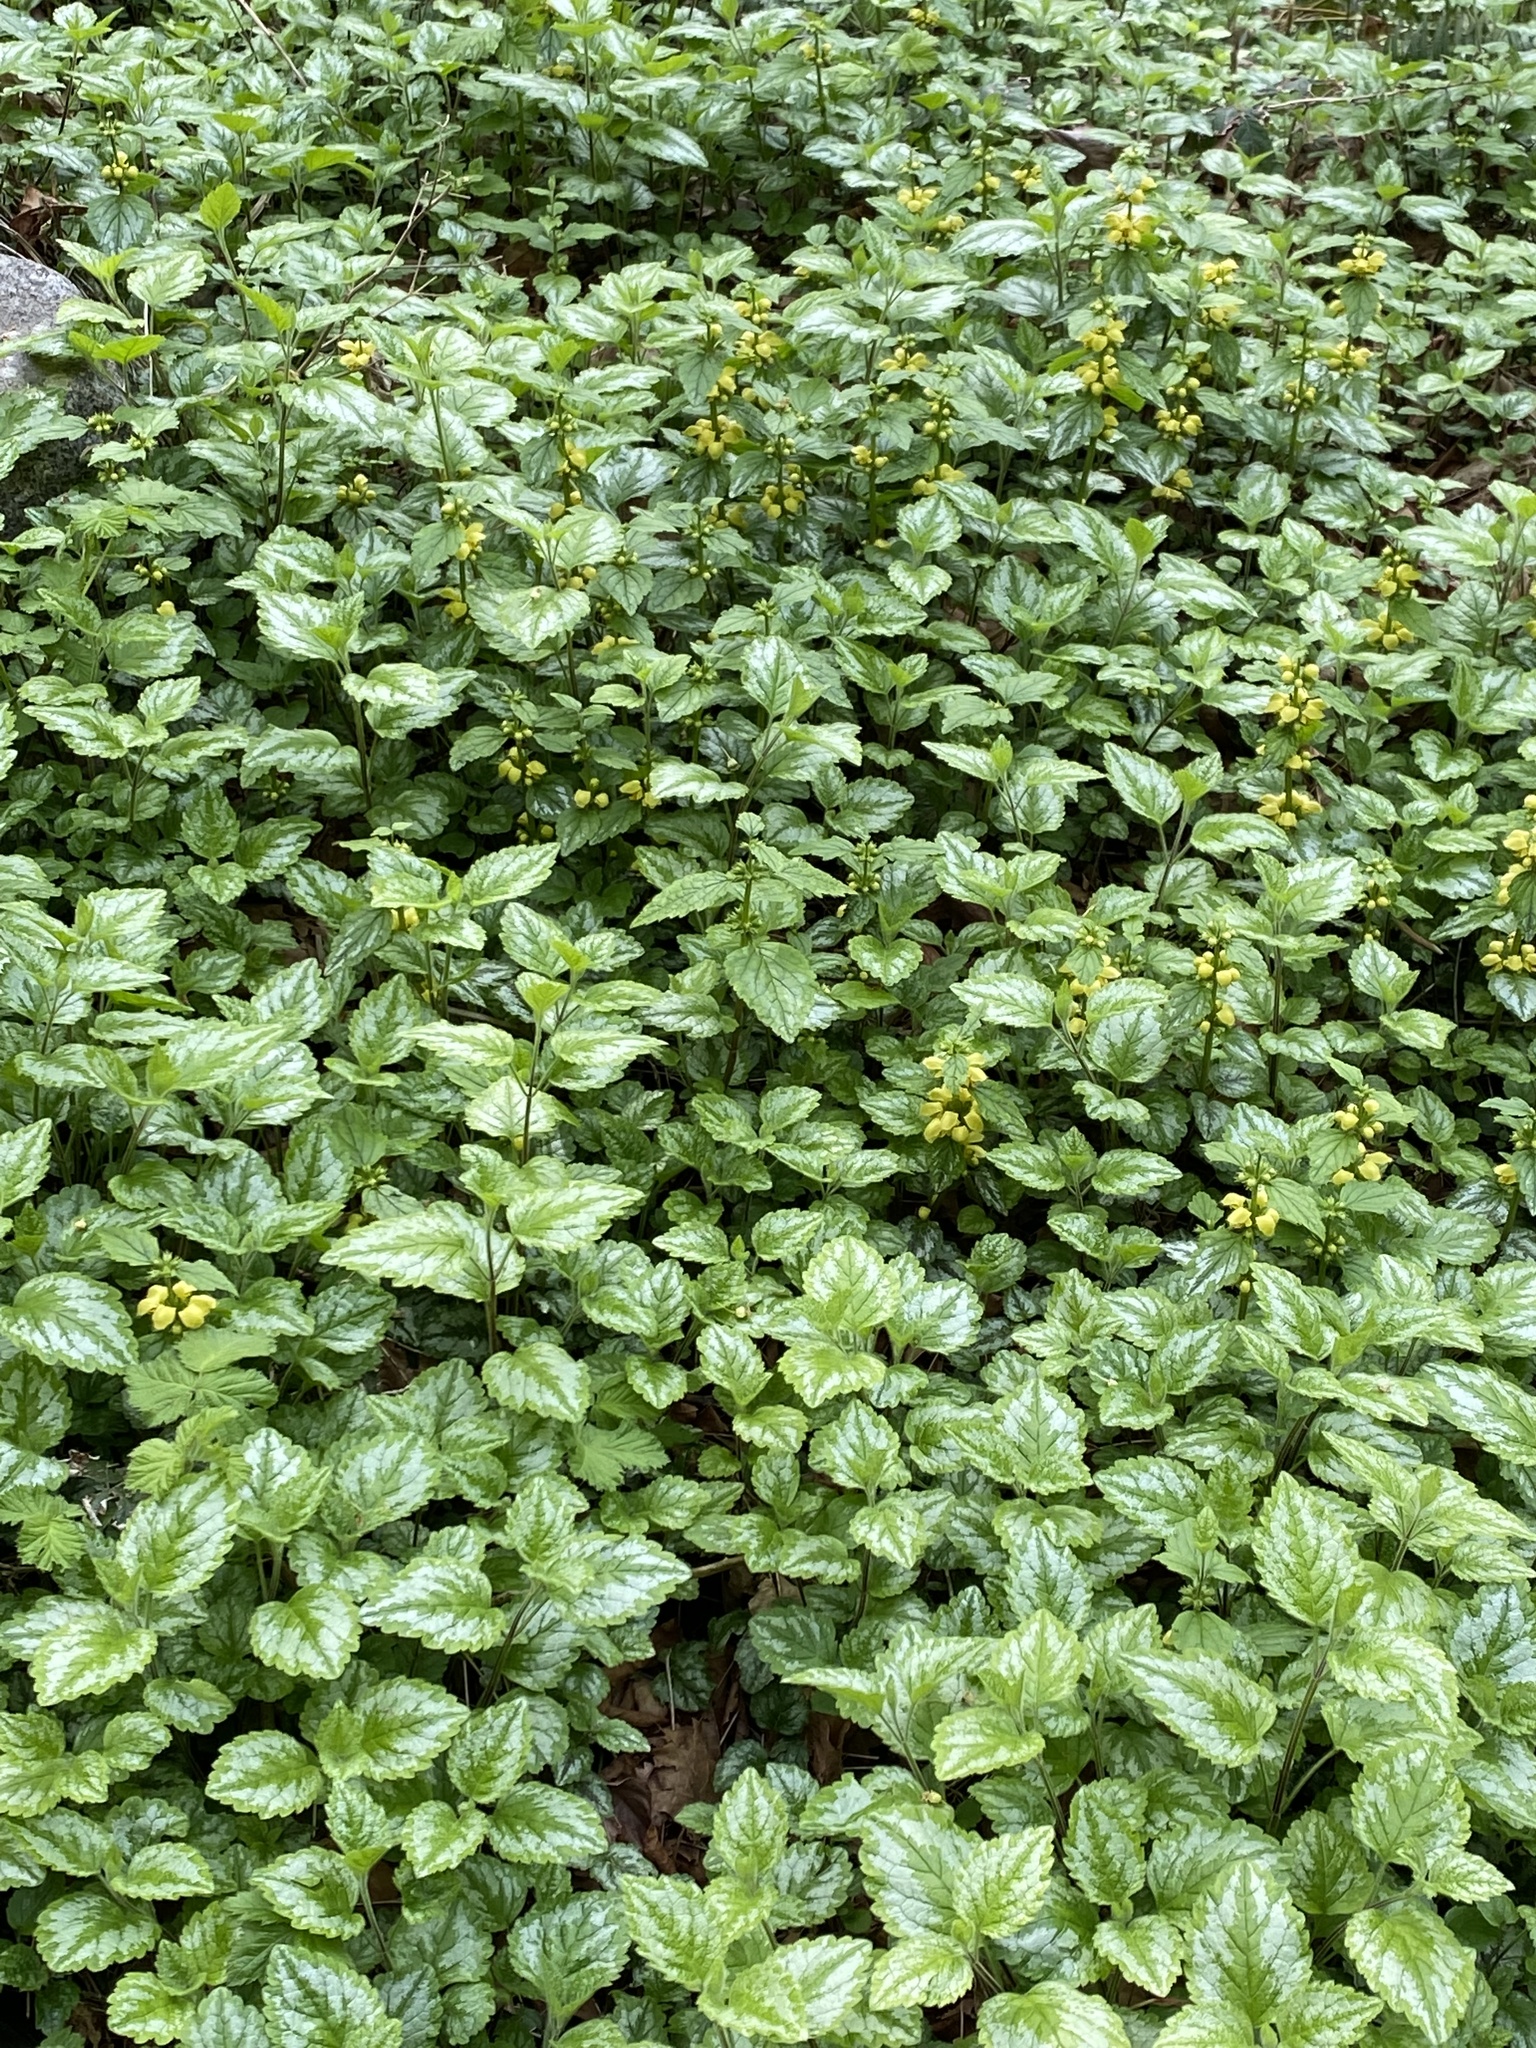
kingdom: Plantae
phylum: Tracheophyta
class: Magnoliopsida
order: Lamiales
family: Lamiaceae
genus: Lamium
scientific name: Lamium galeobdolon
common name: Yellow archangel
